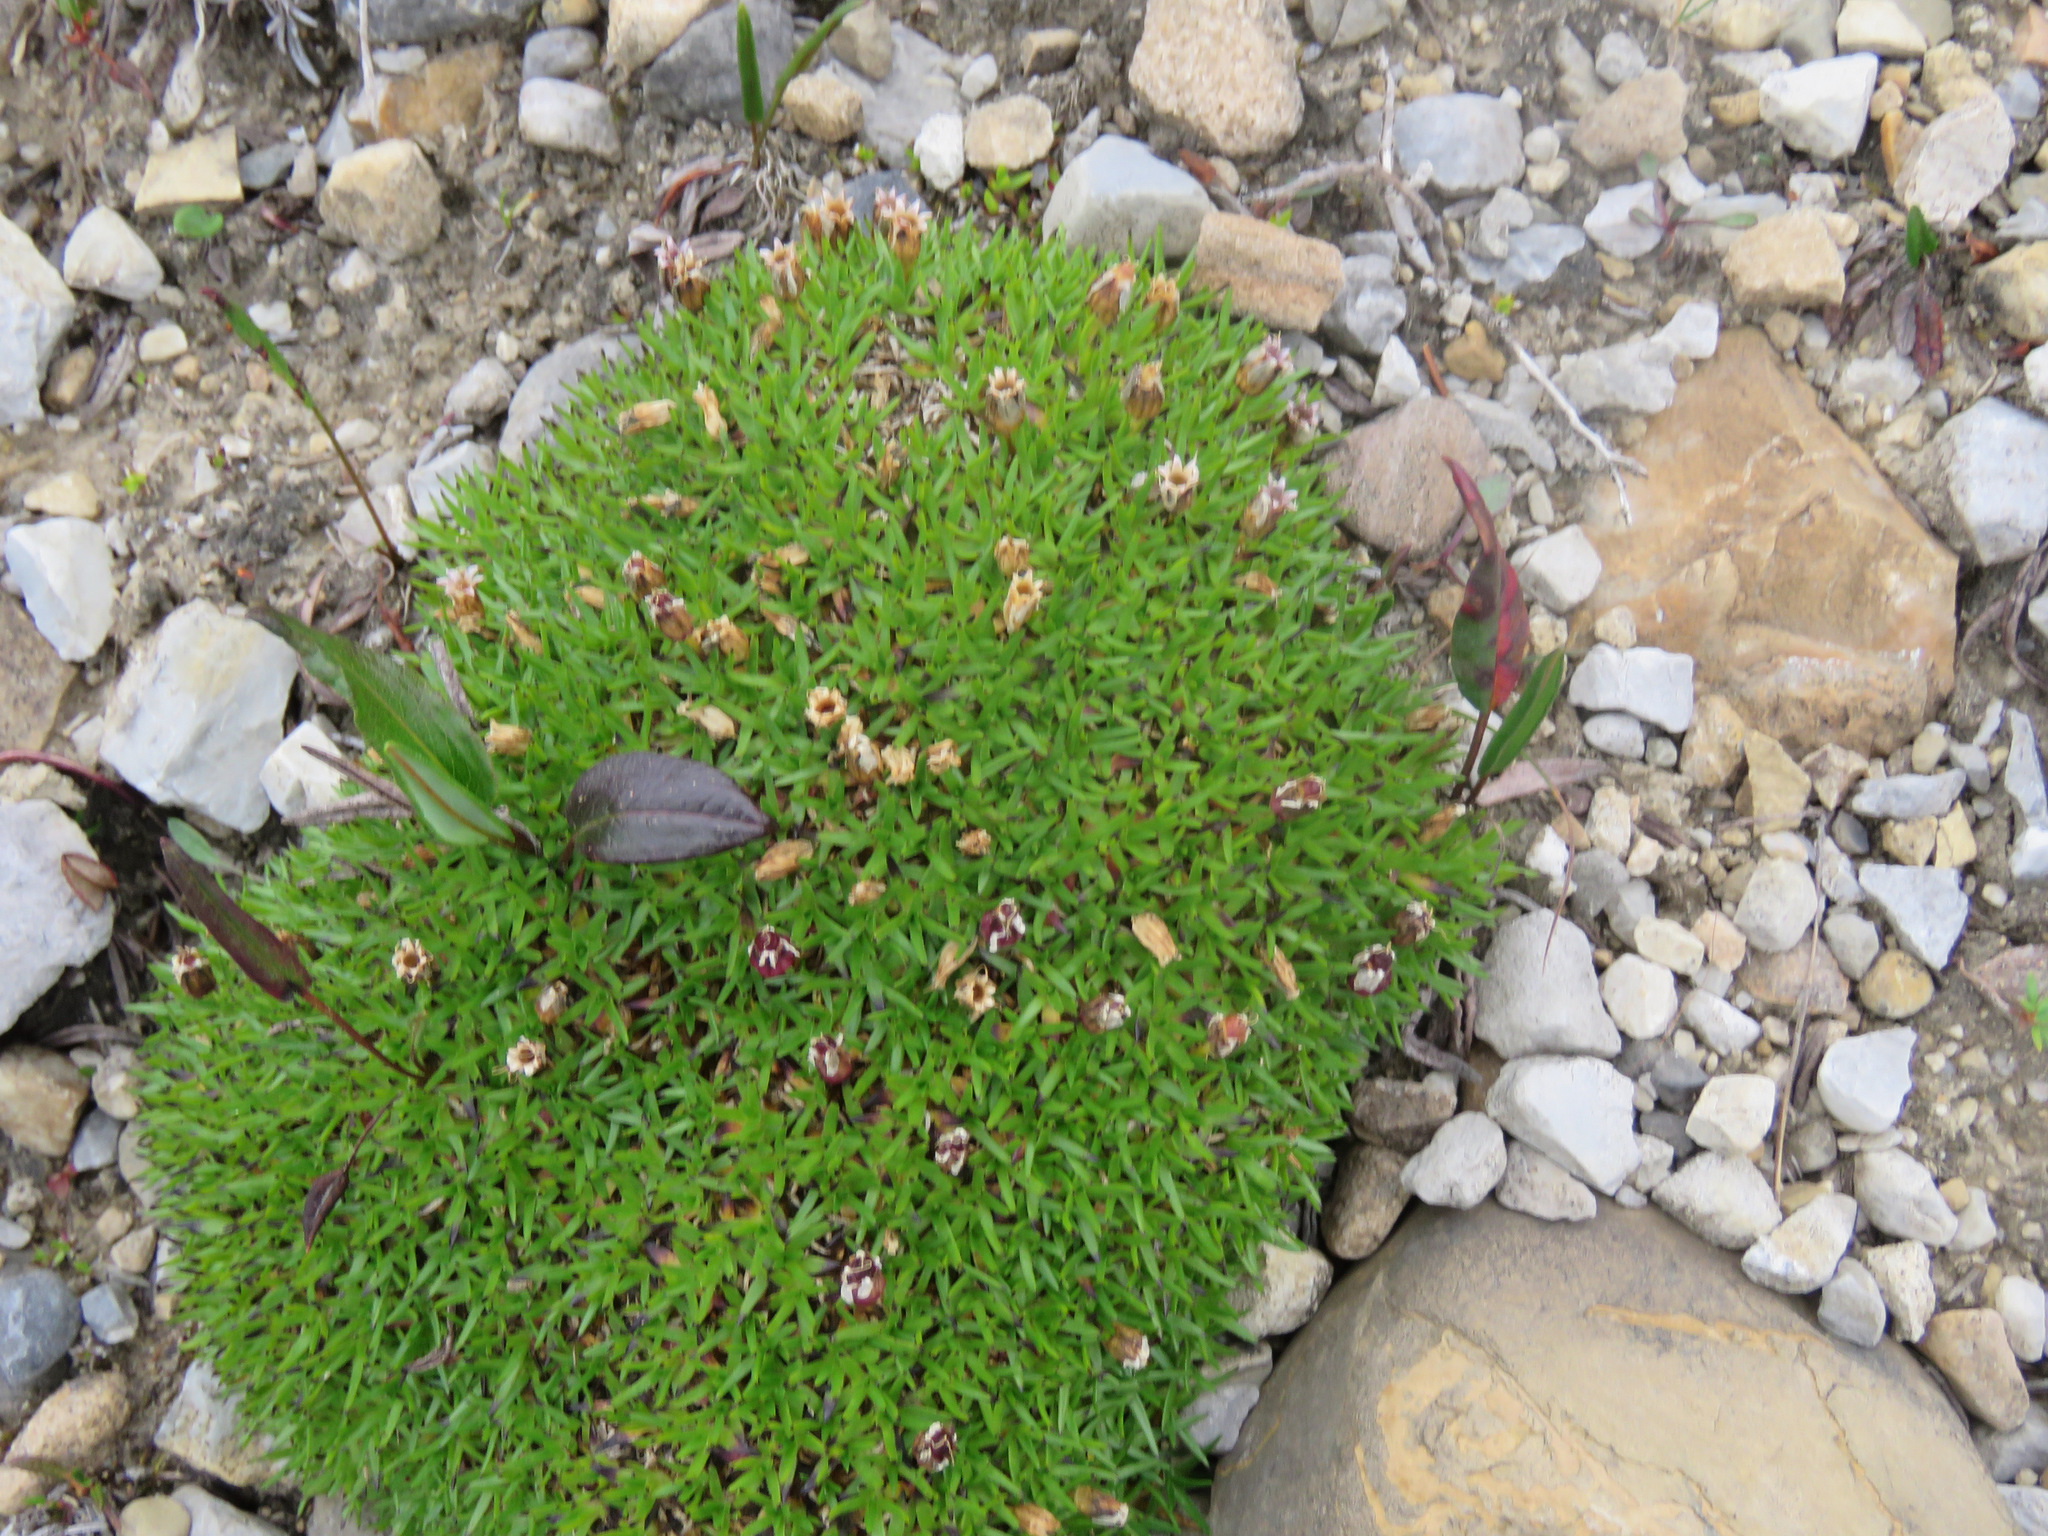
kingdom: Plantae
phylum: Tracheophyta
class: Magnoliopsida
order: Caryophyllales
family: Caryophyllaceae
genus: Silene
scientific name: Silene acaulis
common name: Moss campion
